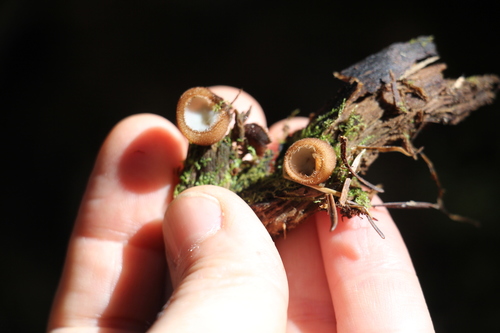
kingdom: Fungi
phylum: Ascomycota
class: Pezizomycetes
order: Pezizales
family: Pyronemataceae
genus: Humaria
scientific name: Humaria hemisphaerica
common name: Glazed cup
